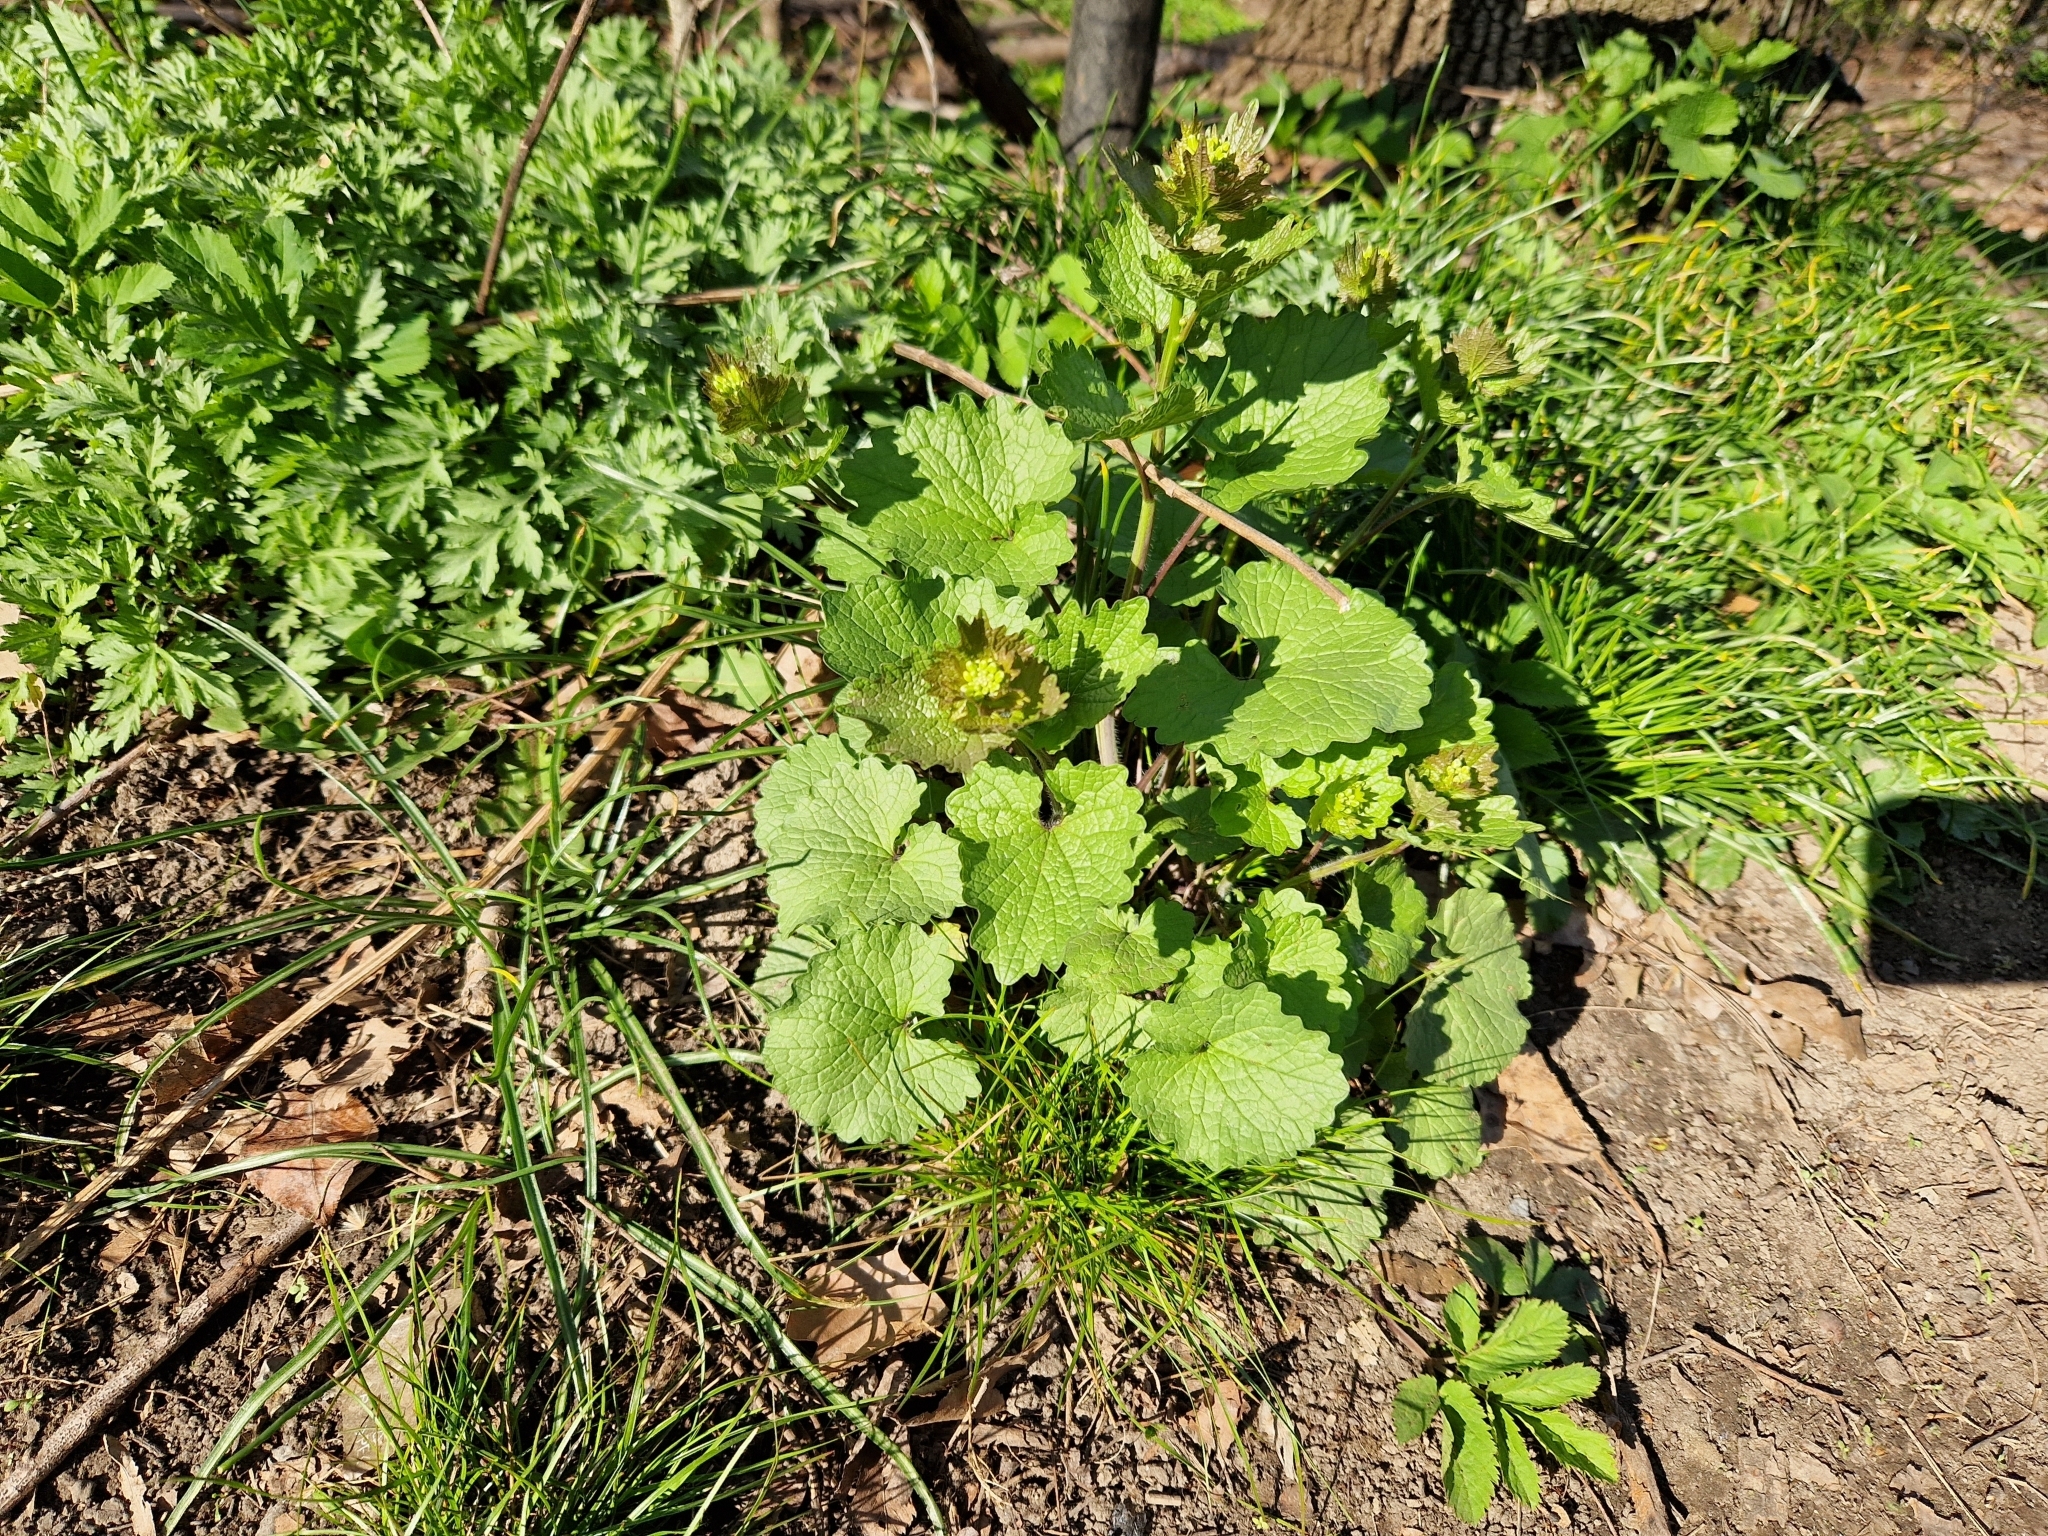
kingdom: Plantae
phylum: Tracheophyta
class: Magnoliopsida
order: Brassicales
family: Brassicaceae
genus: Alliaria
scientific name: Alliaria petiolata
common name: Garlic mustard
